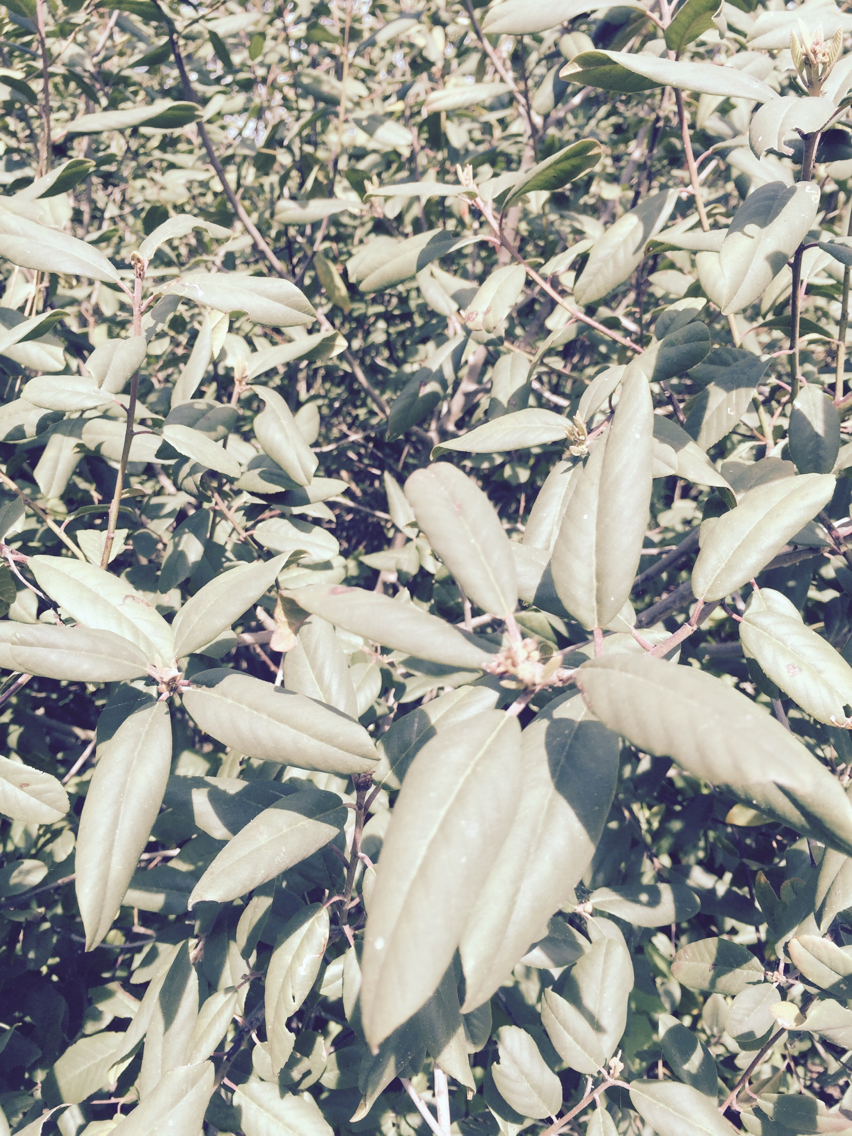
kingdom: Plantae
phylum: Tracheophyta
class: Magnoliopsida
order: Rosales
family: Rhamnaceae
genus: Frangula
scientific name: Frangula californica
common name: California buckthorn
